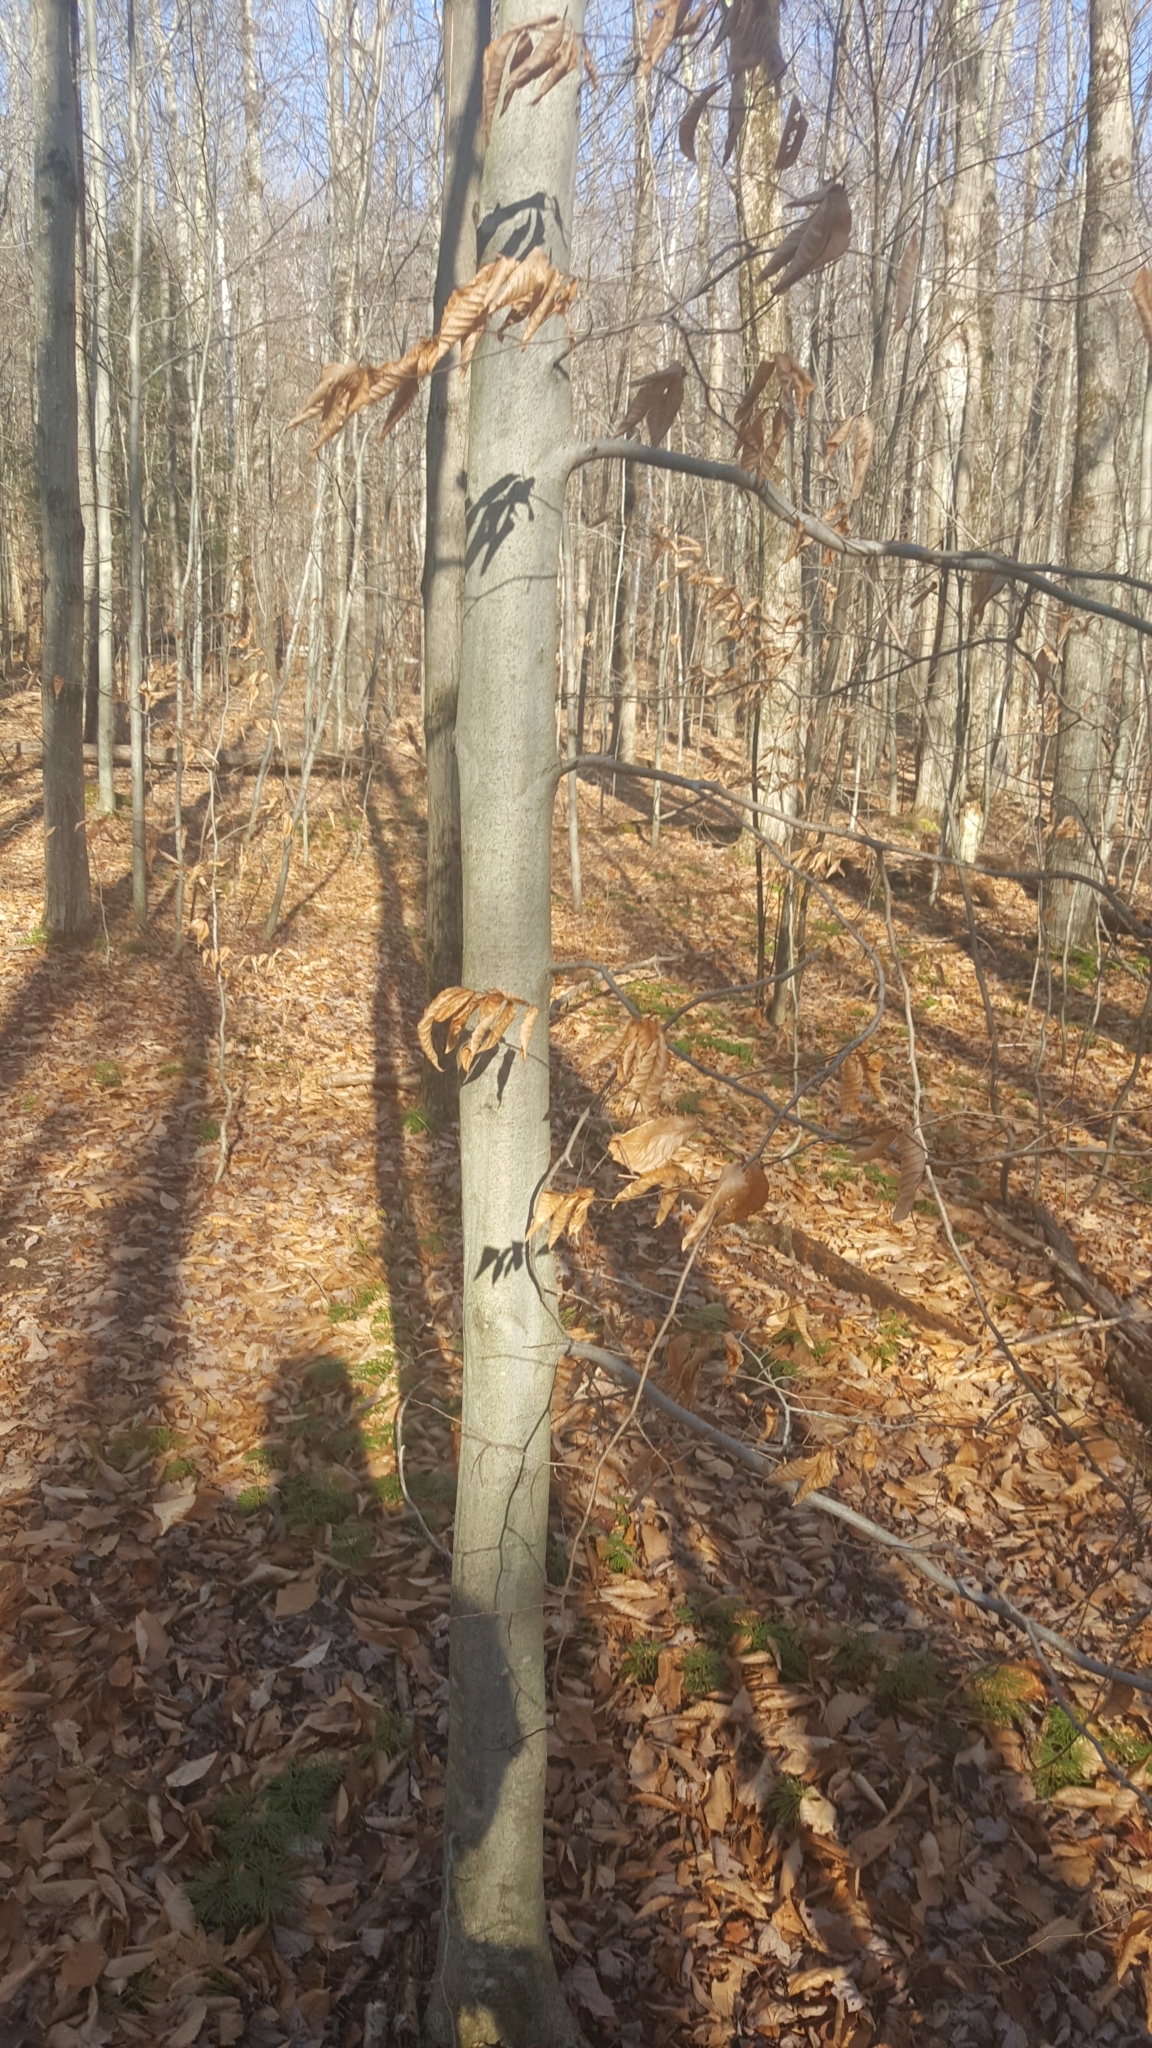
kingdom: Plantae
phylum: Tracheophyta
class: Magnoliopsida
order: Fagales
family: Fagaceae
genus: Fagus
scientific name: Fagus grandifolia
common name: American beech
